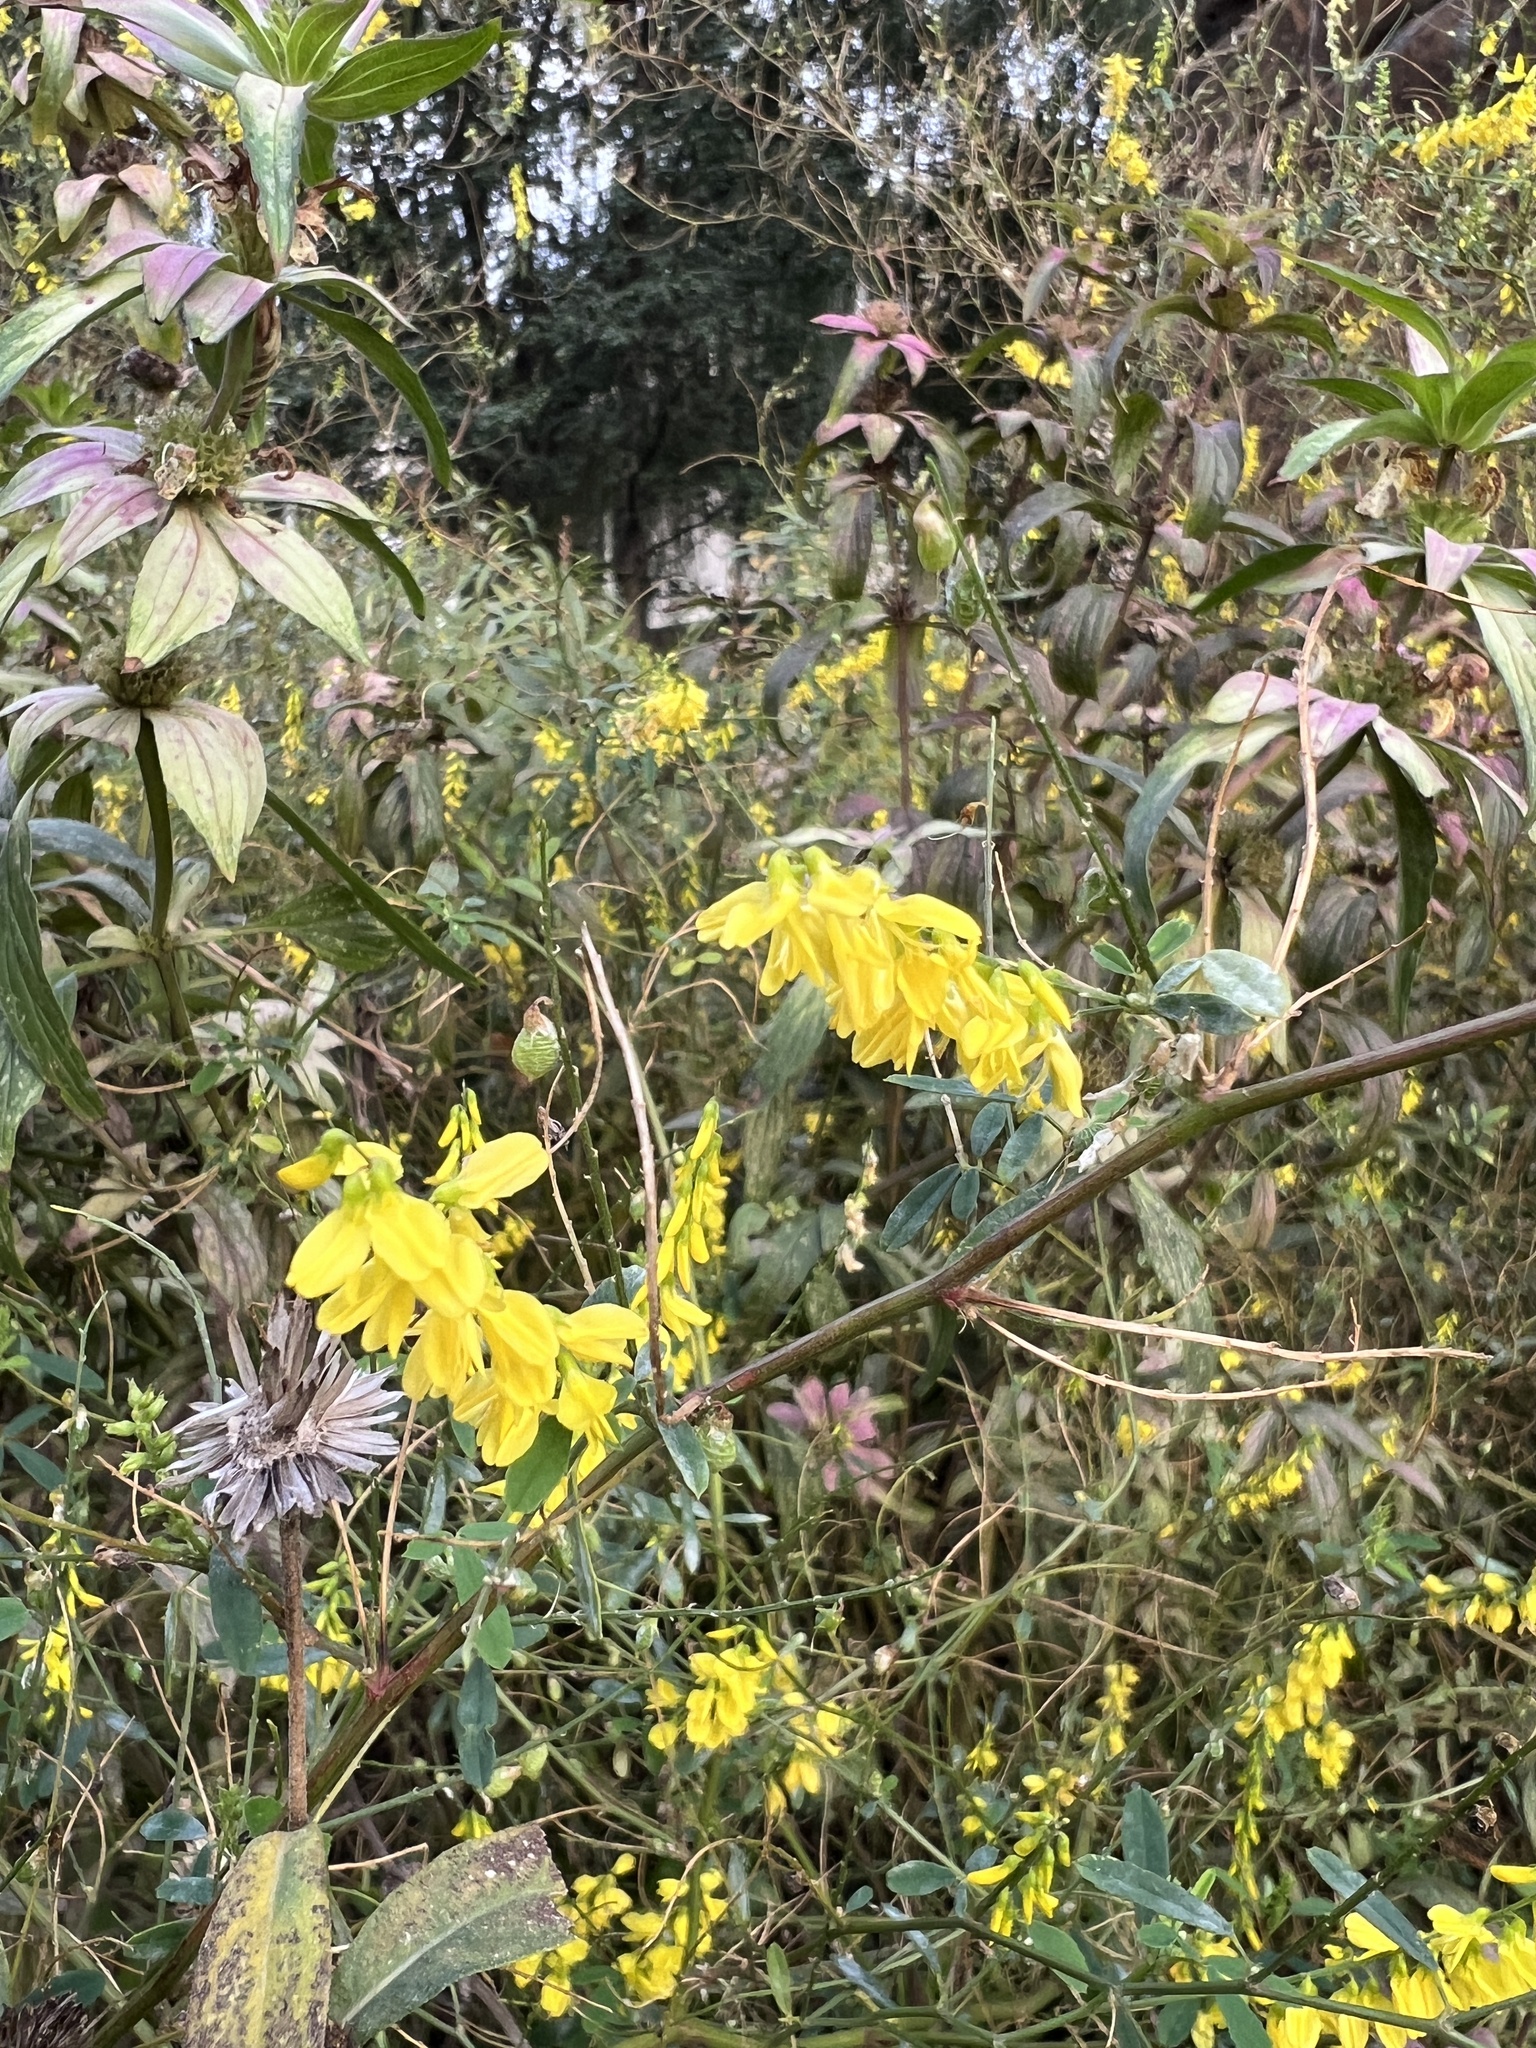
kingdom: Plantae
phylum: Tracheophyta
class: Magnoliopsida
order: Fabales
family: Fabaceae
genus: Melilotus
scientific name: Melilotus officinalis
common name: Sweetclover
